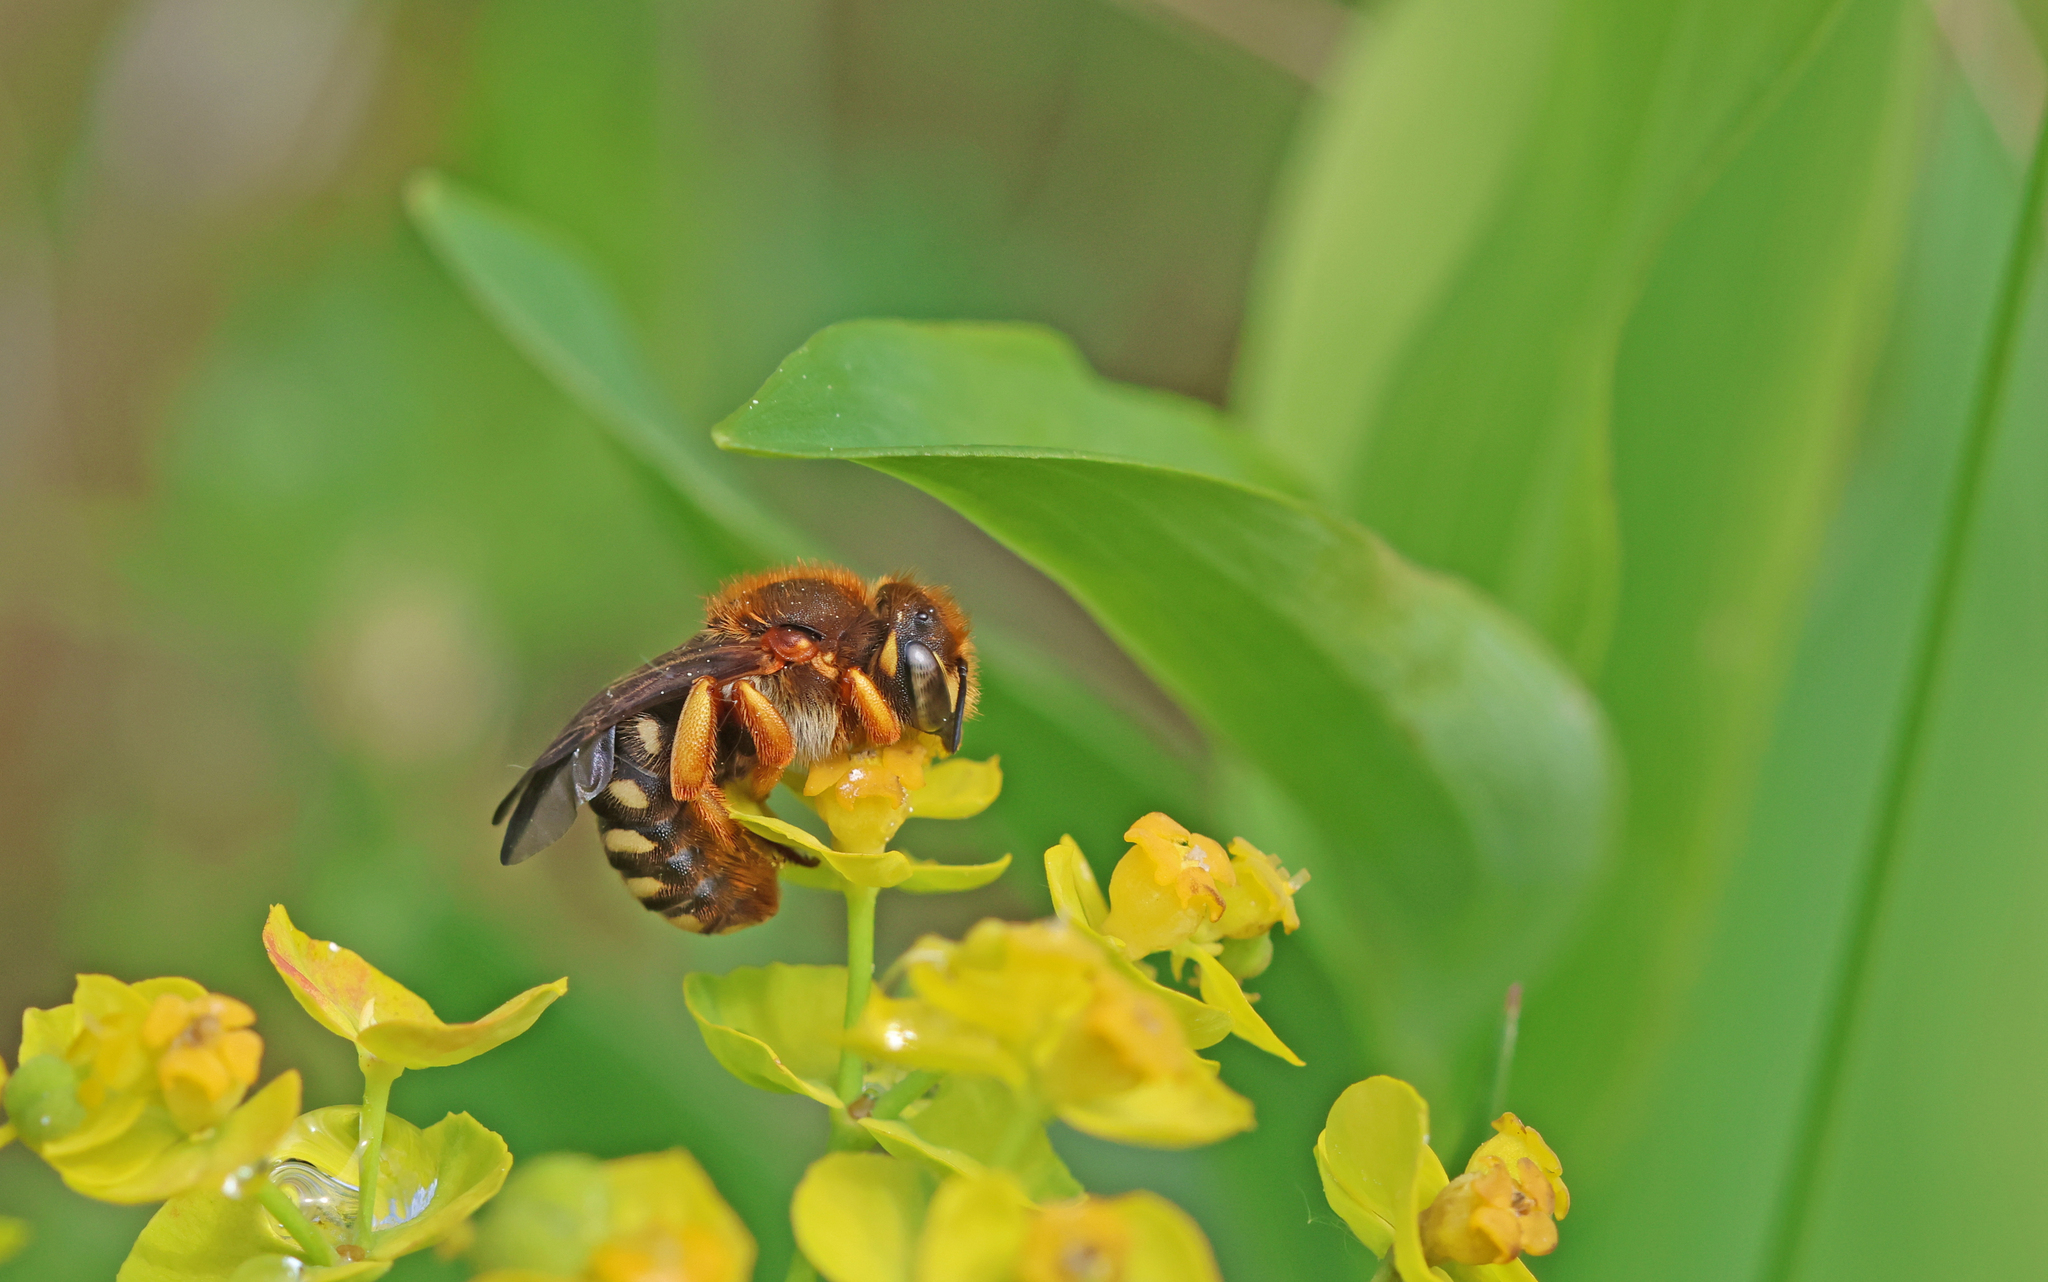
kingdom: Animalia
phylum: Arthropoda
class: Insecta
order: Hymenoptera
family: Megachilidae
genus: Rhodanthidium
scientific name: Rhodanthidium septemdentatum
